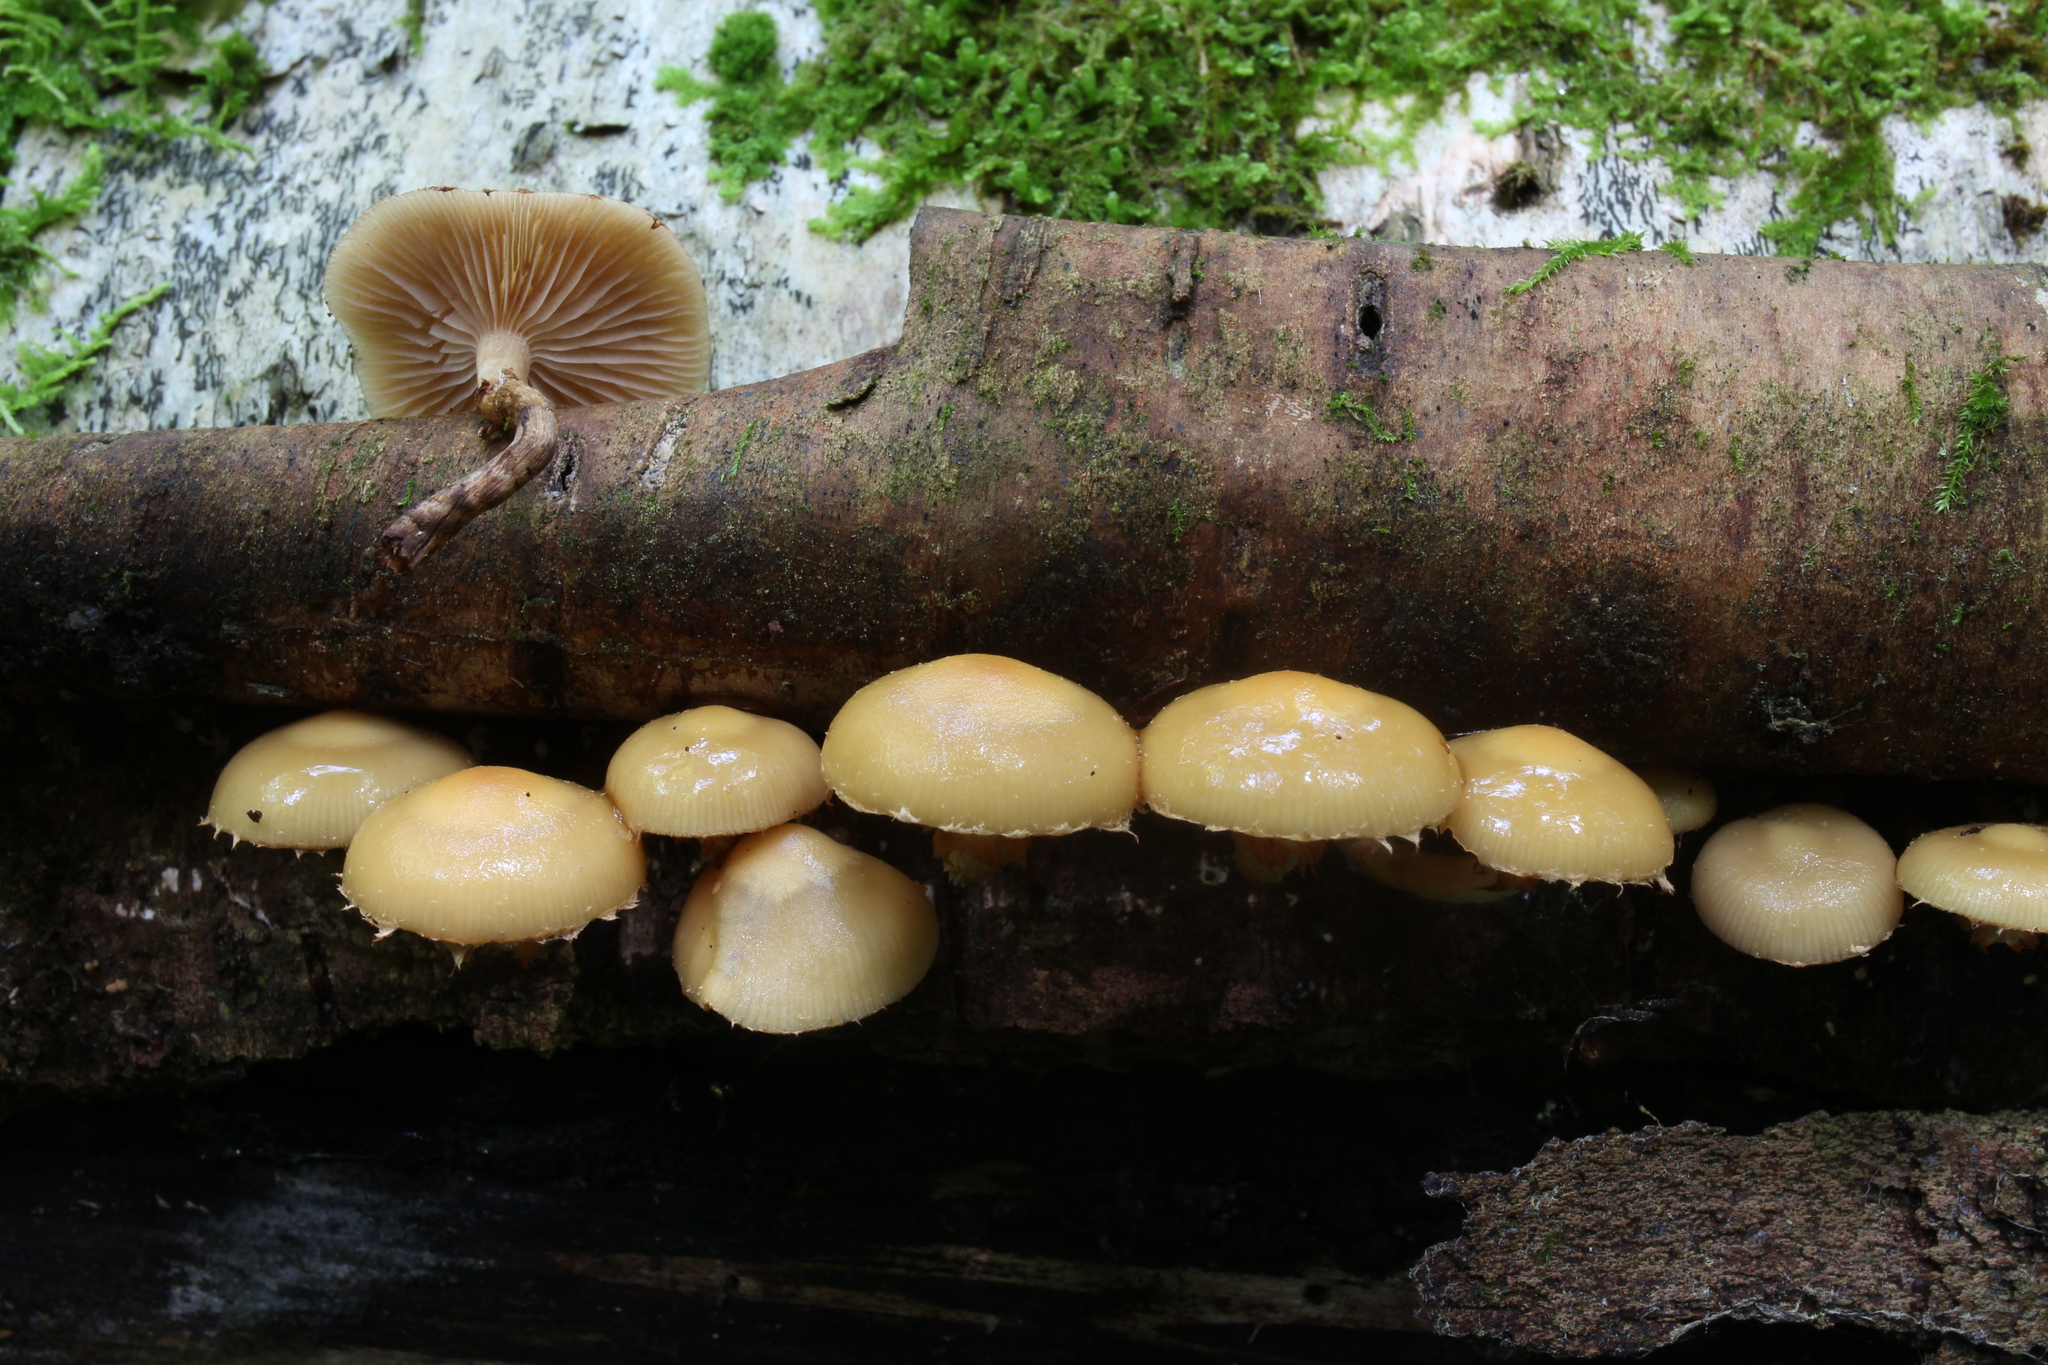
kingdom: Fungi
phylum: Basidiomycota
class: Agaricomycetes
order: Agaricales
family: Strophariaceae
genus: Kuehneromyces
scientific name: Kuehneromyces mutabilis
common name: Sheathed woodtuft
